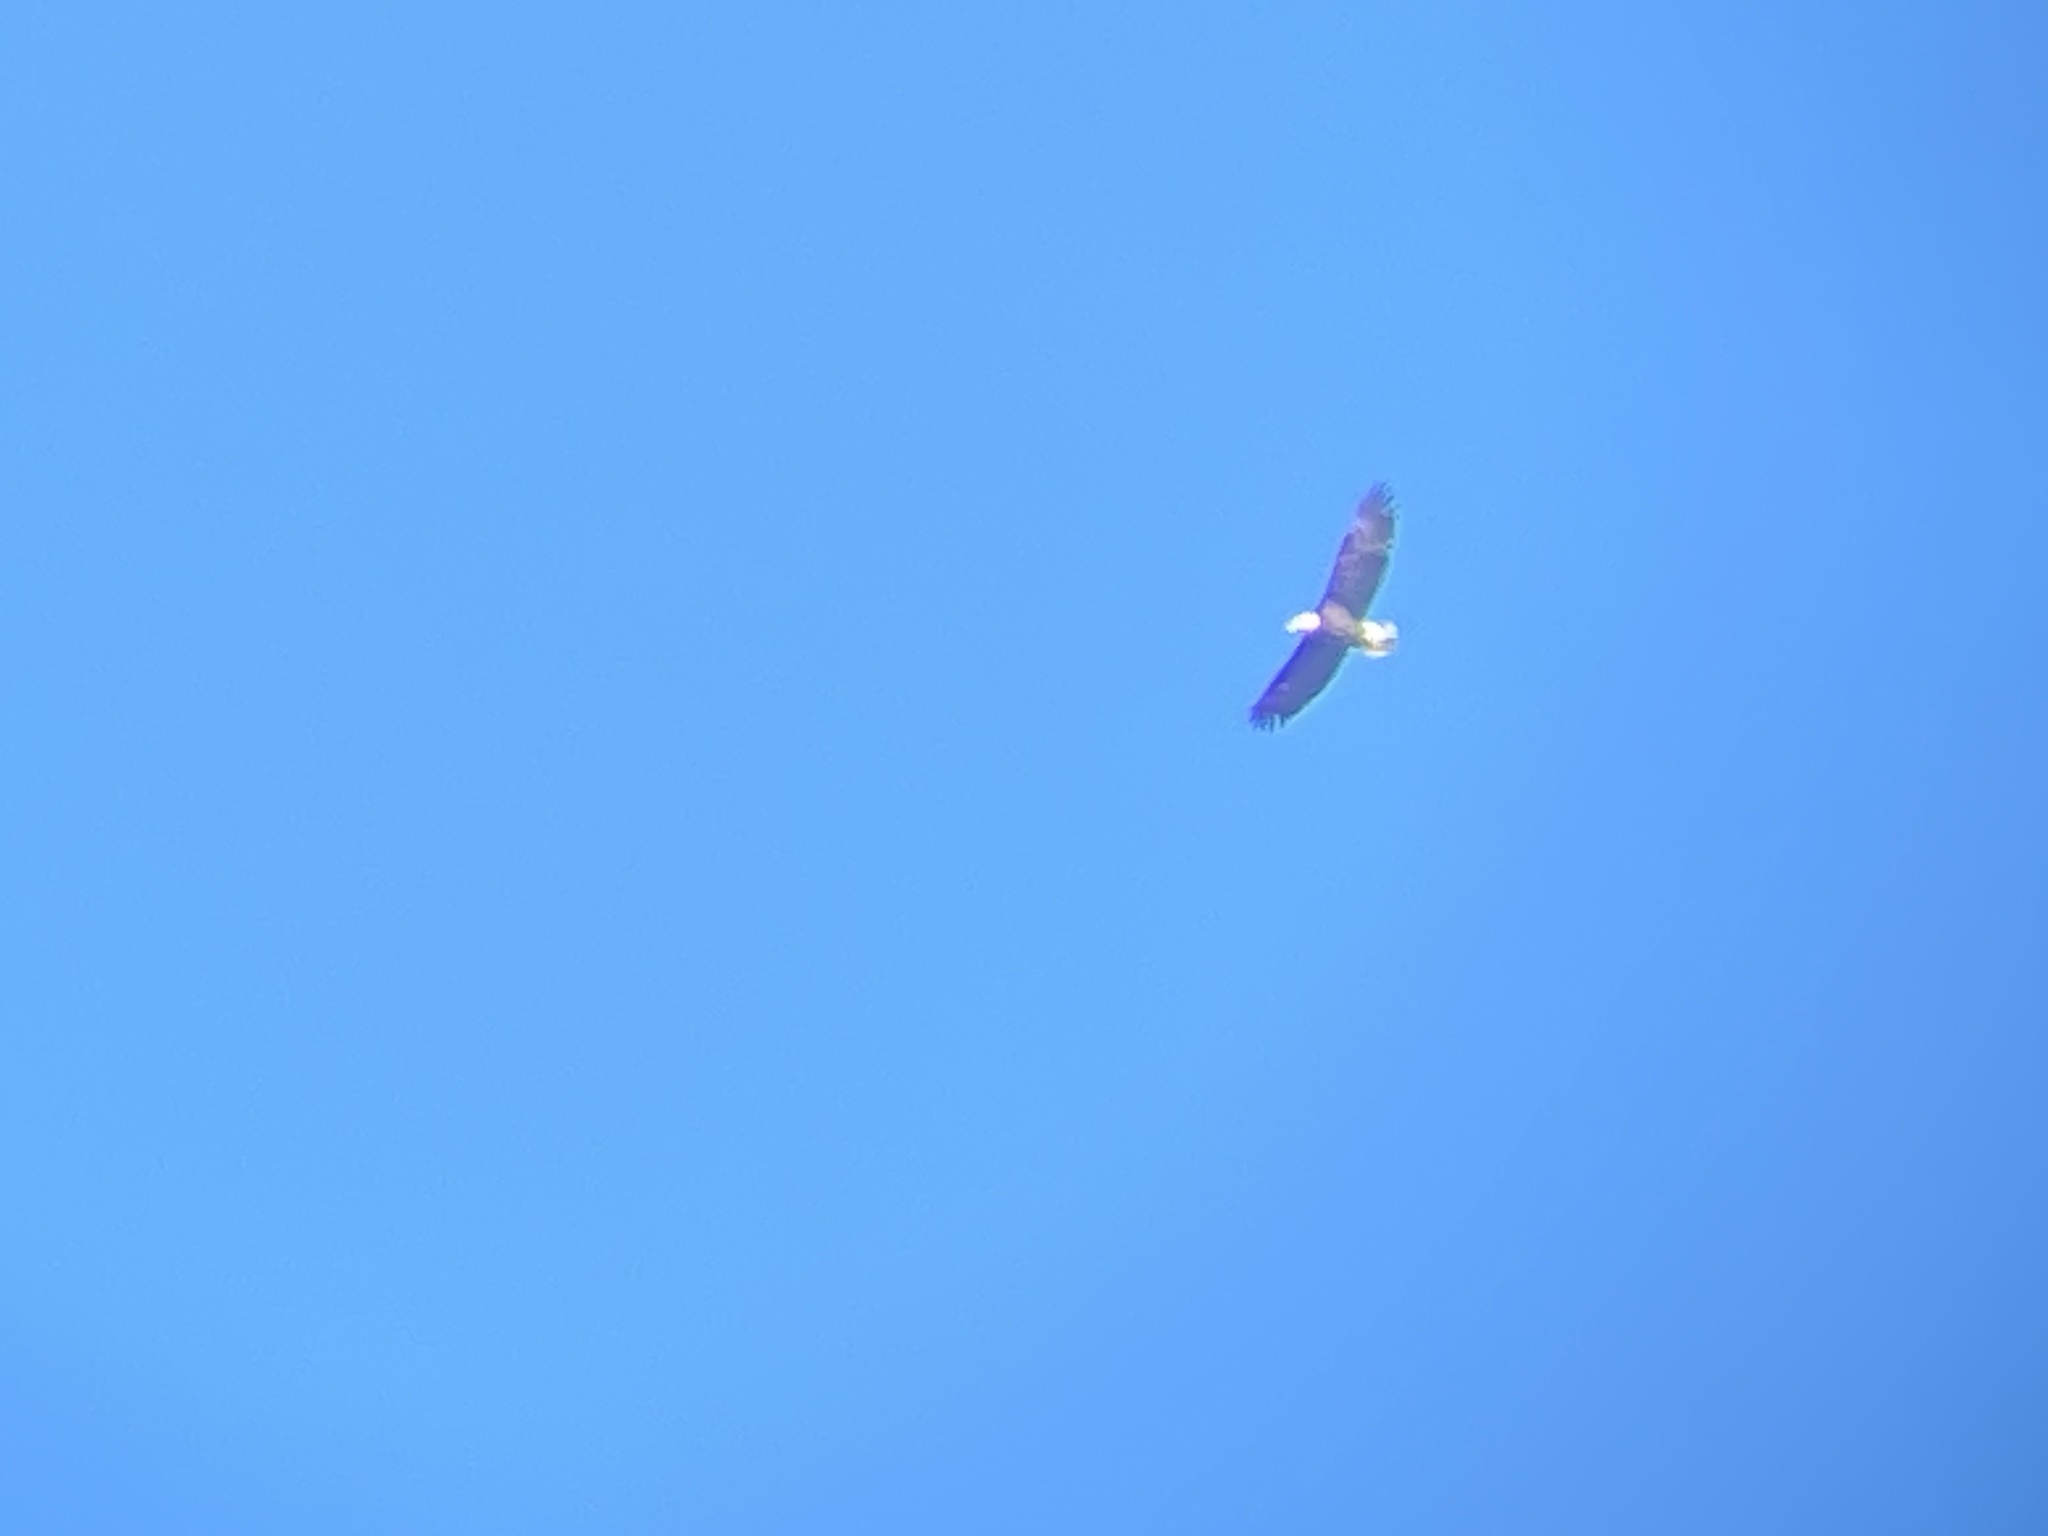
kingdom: Animalia
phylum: Chordata
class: Aves
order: Accipitriformes
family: Accipitridae
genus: Haliaeetus
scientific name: Haliaeetus leucocephalus
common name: Bald eagle
